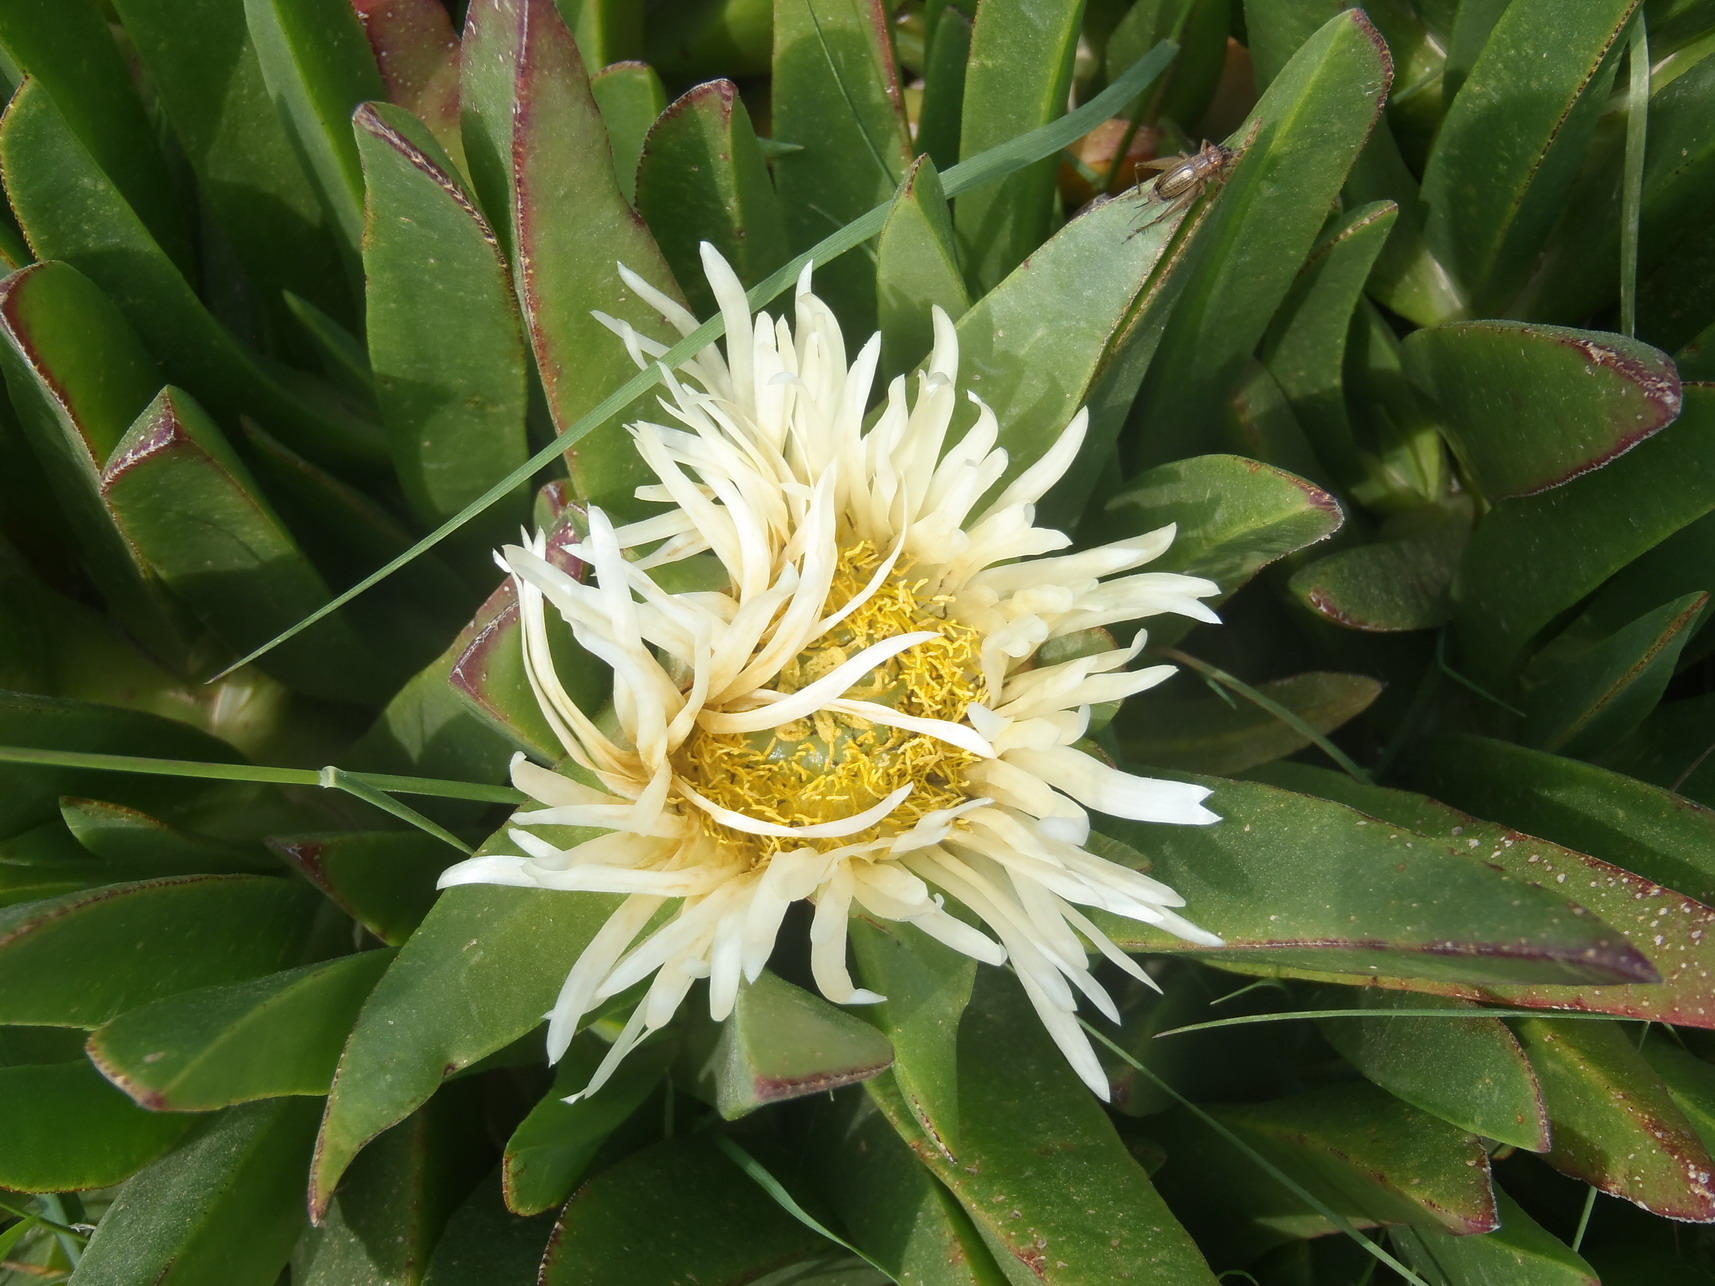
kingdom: Plantae
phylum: Tracheophyta
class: Magnoliopsida
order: Caryophyllales
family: Aizoaceae
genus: Carpobrotus
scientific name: Carpobrotus edulis
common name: Hottentot-fig
